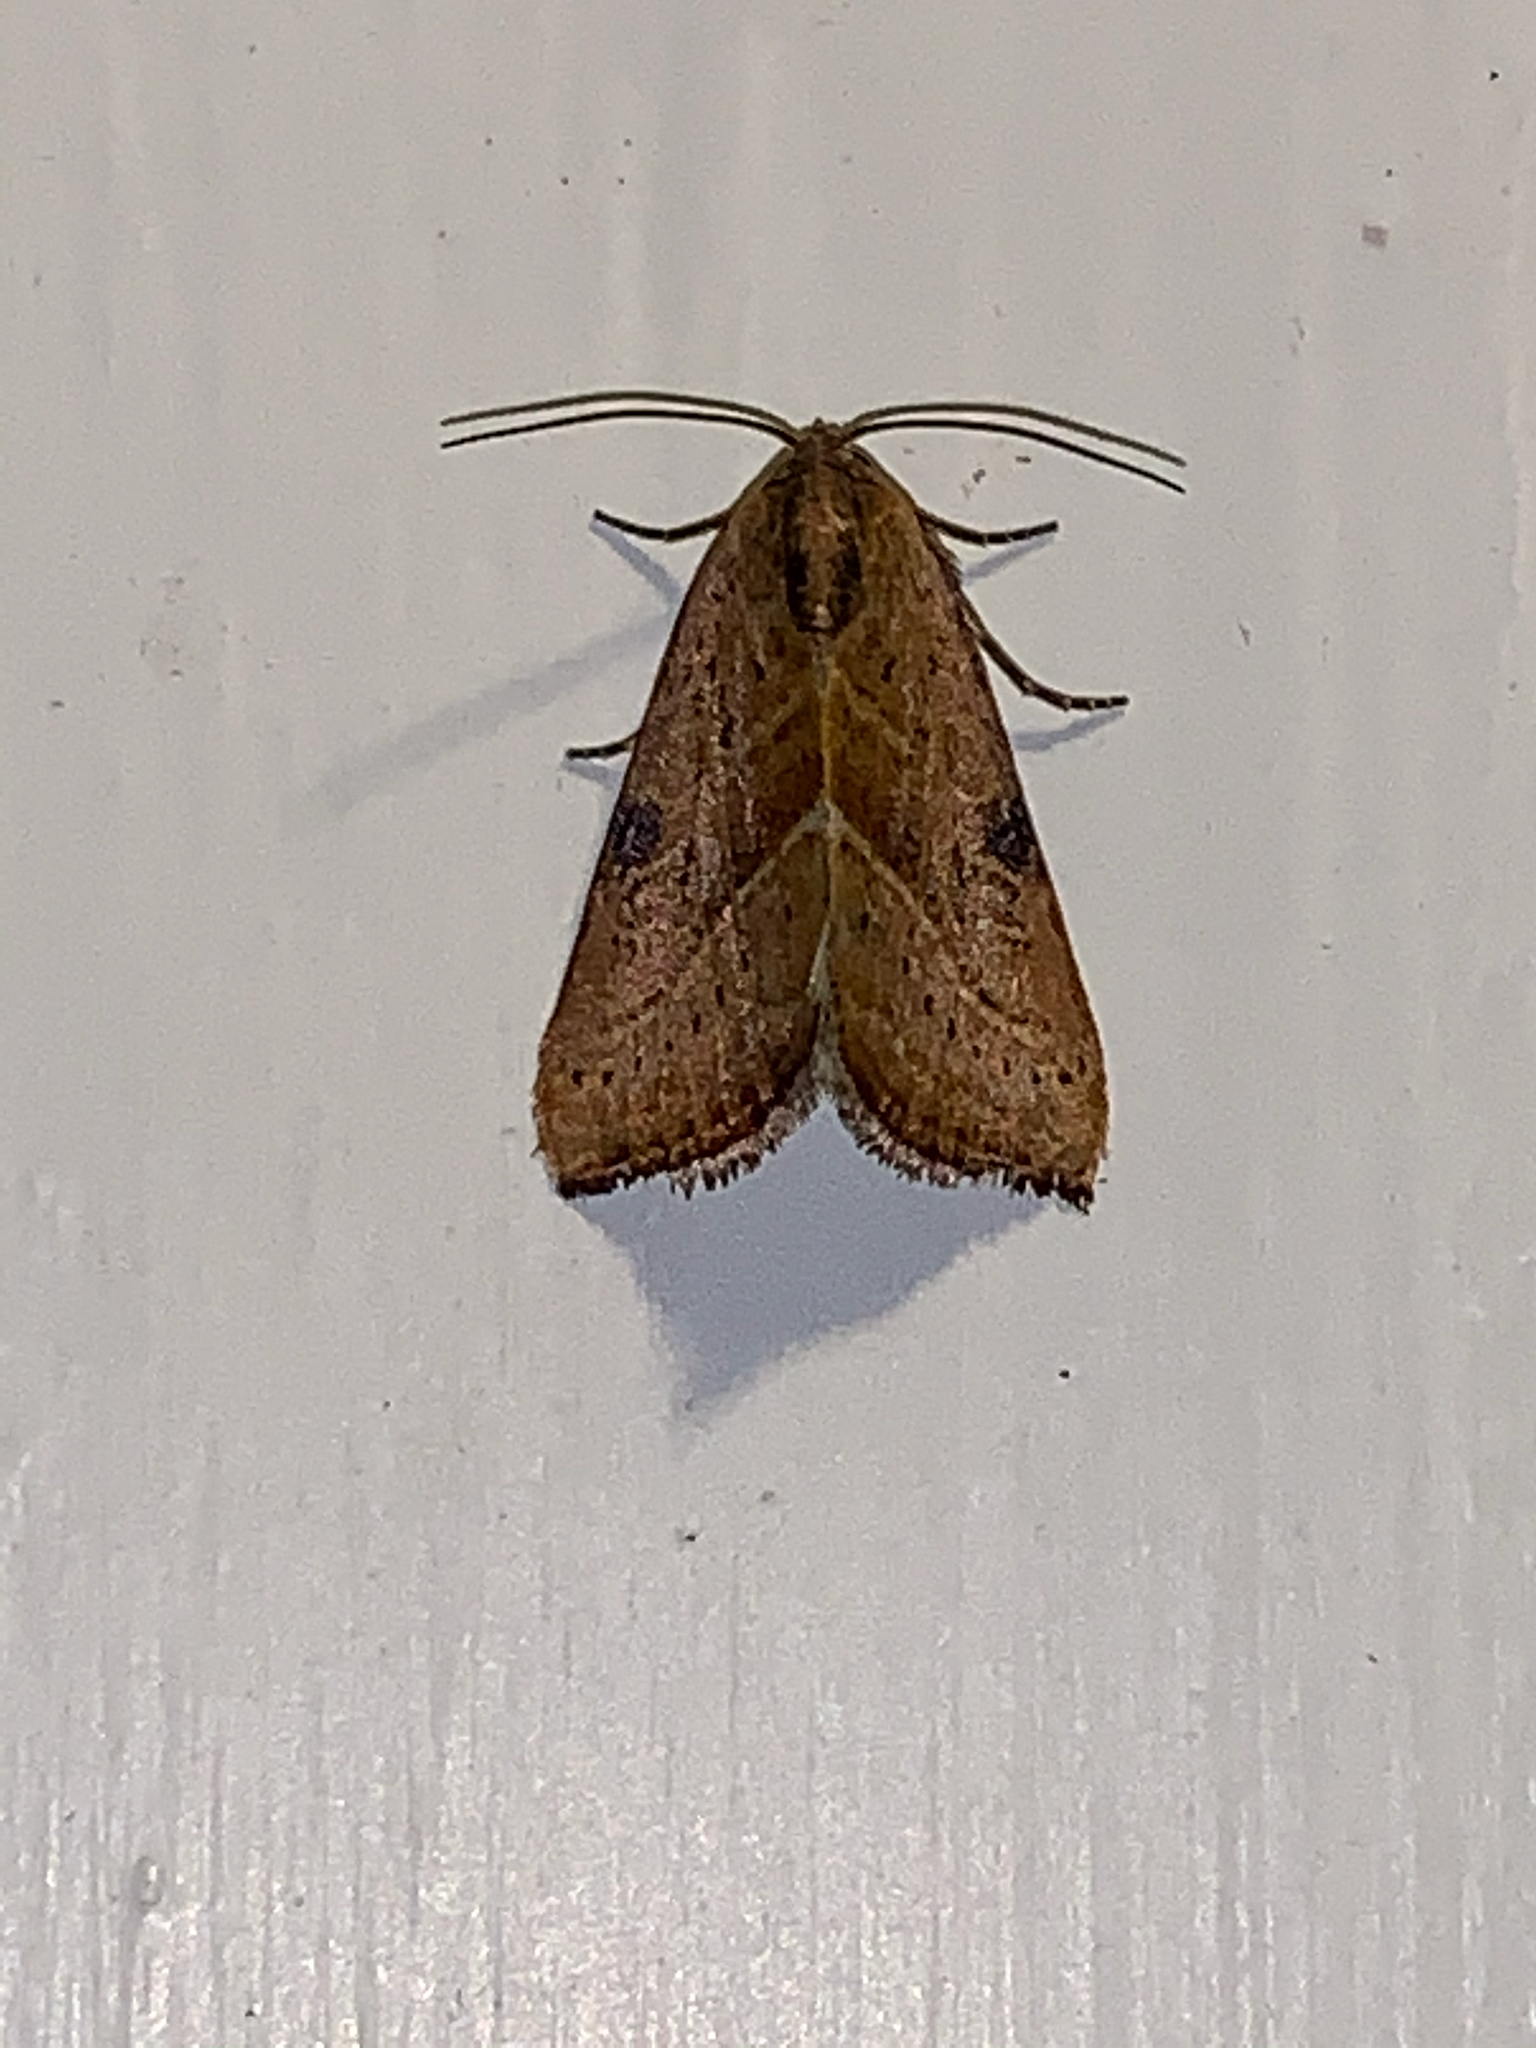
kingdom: Animalia
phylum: Arthropoda
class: Insecta
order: Lepidoptera
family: Noctuidae
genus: Galgula
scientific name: Galgula partita
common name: Wedgeling
